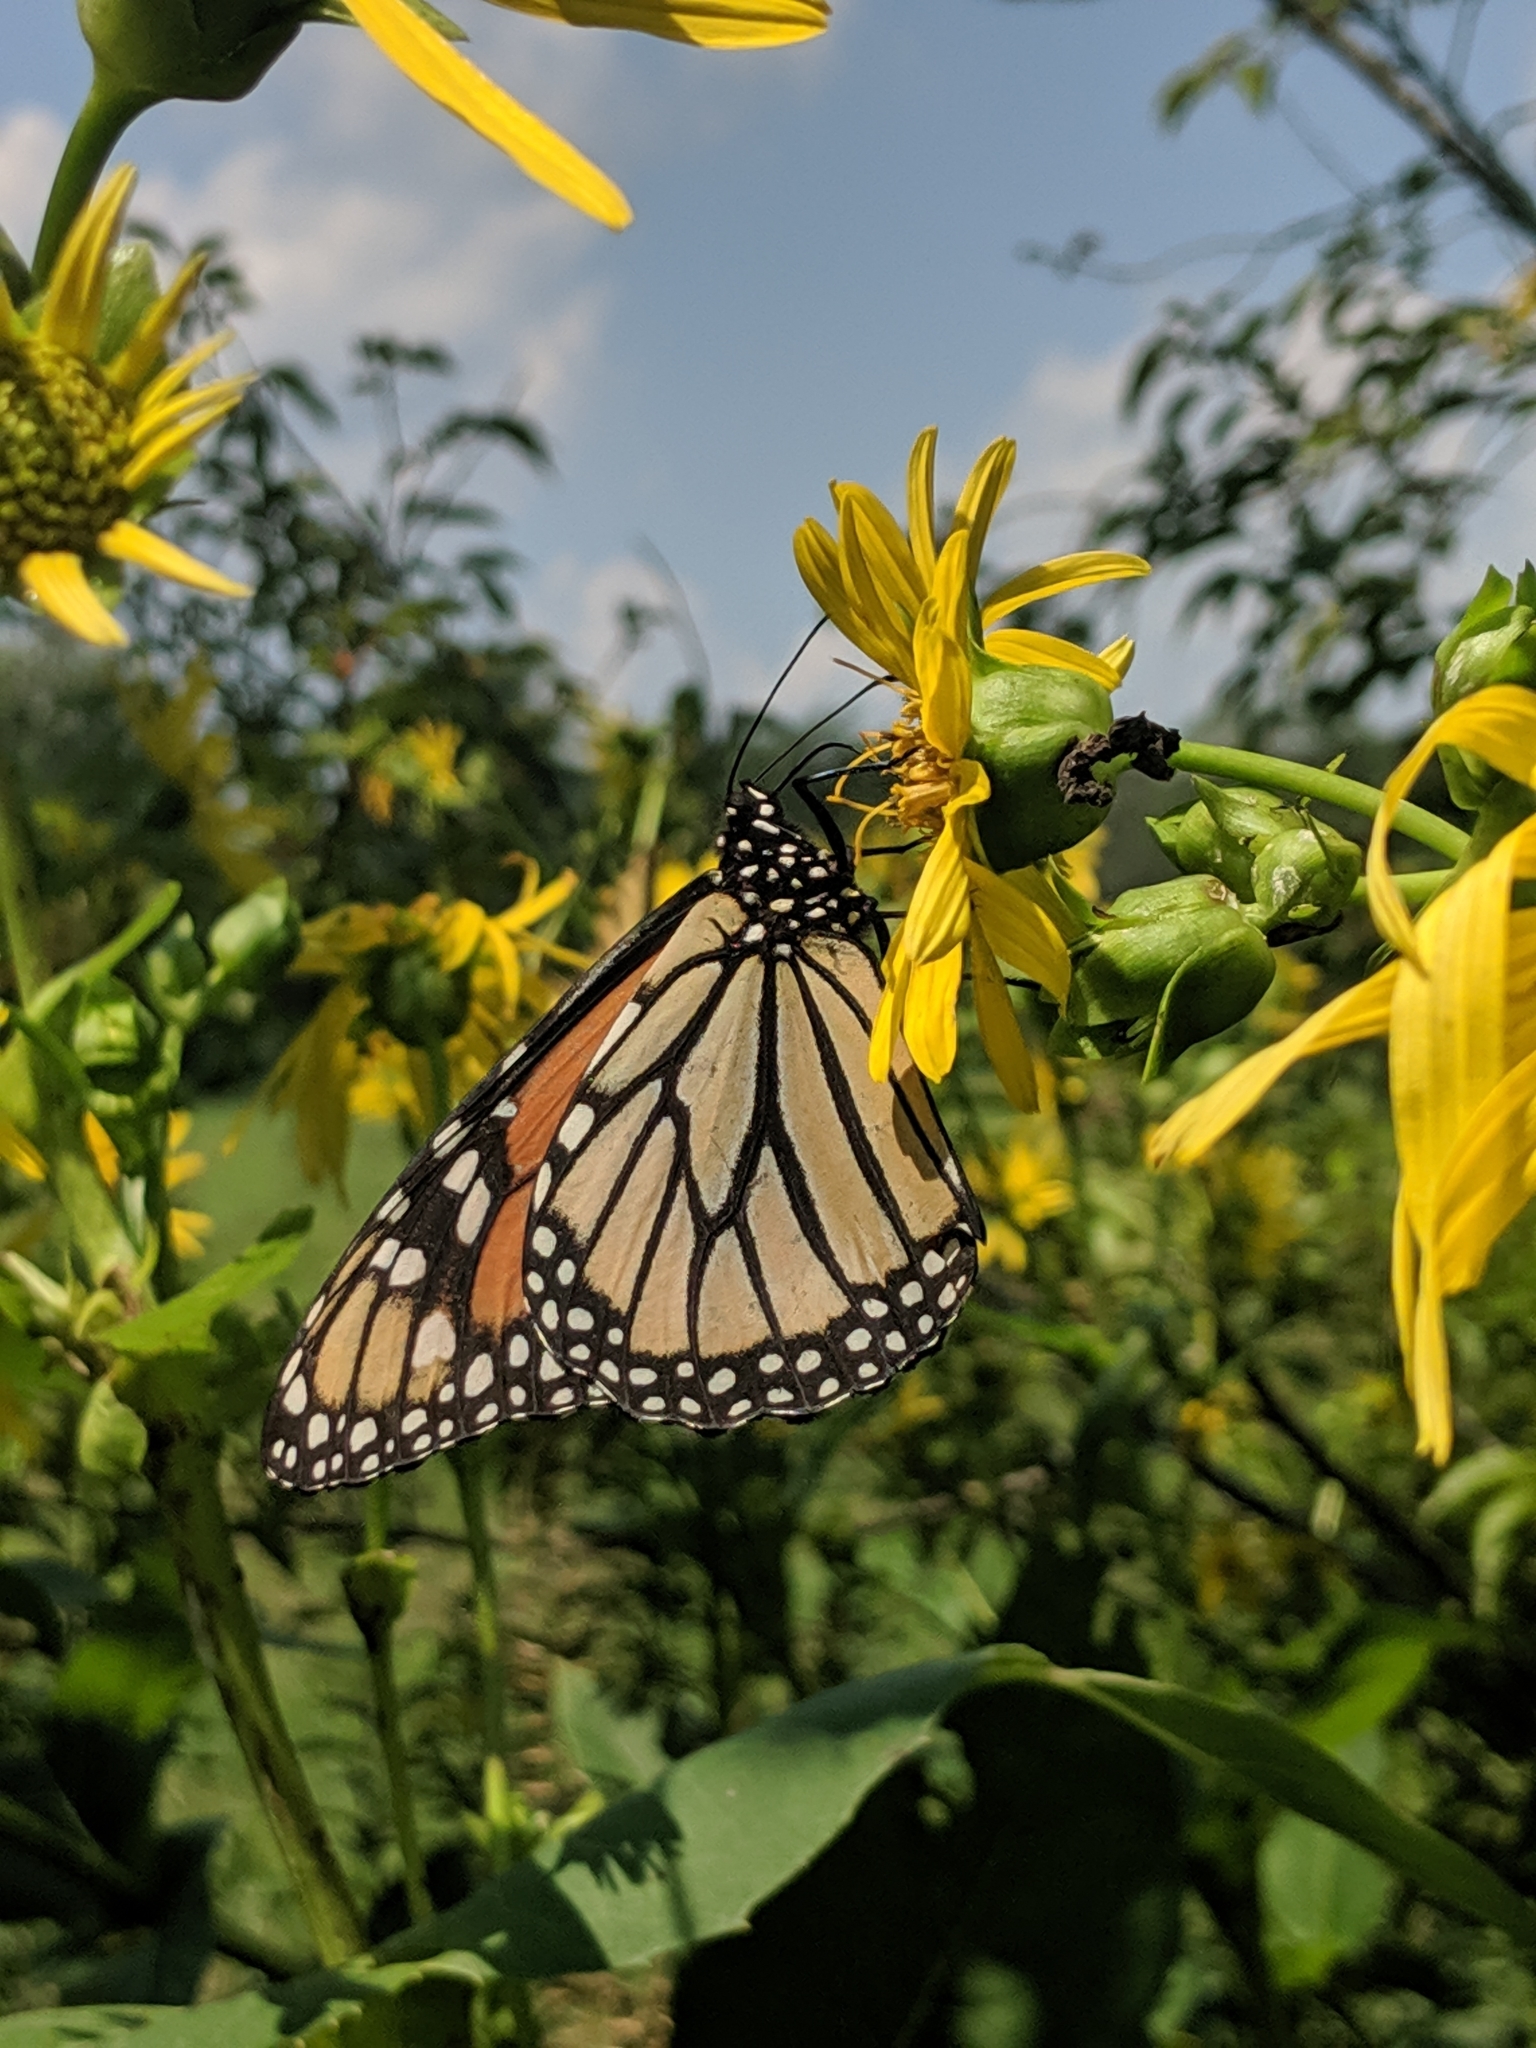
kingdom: Animalia
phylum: Arthropoda
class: Insecta
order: Lepidoptera
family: Nymphalidae
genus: Danaus
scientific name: Danaus plexippus
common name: Monarch
